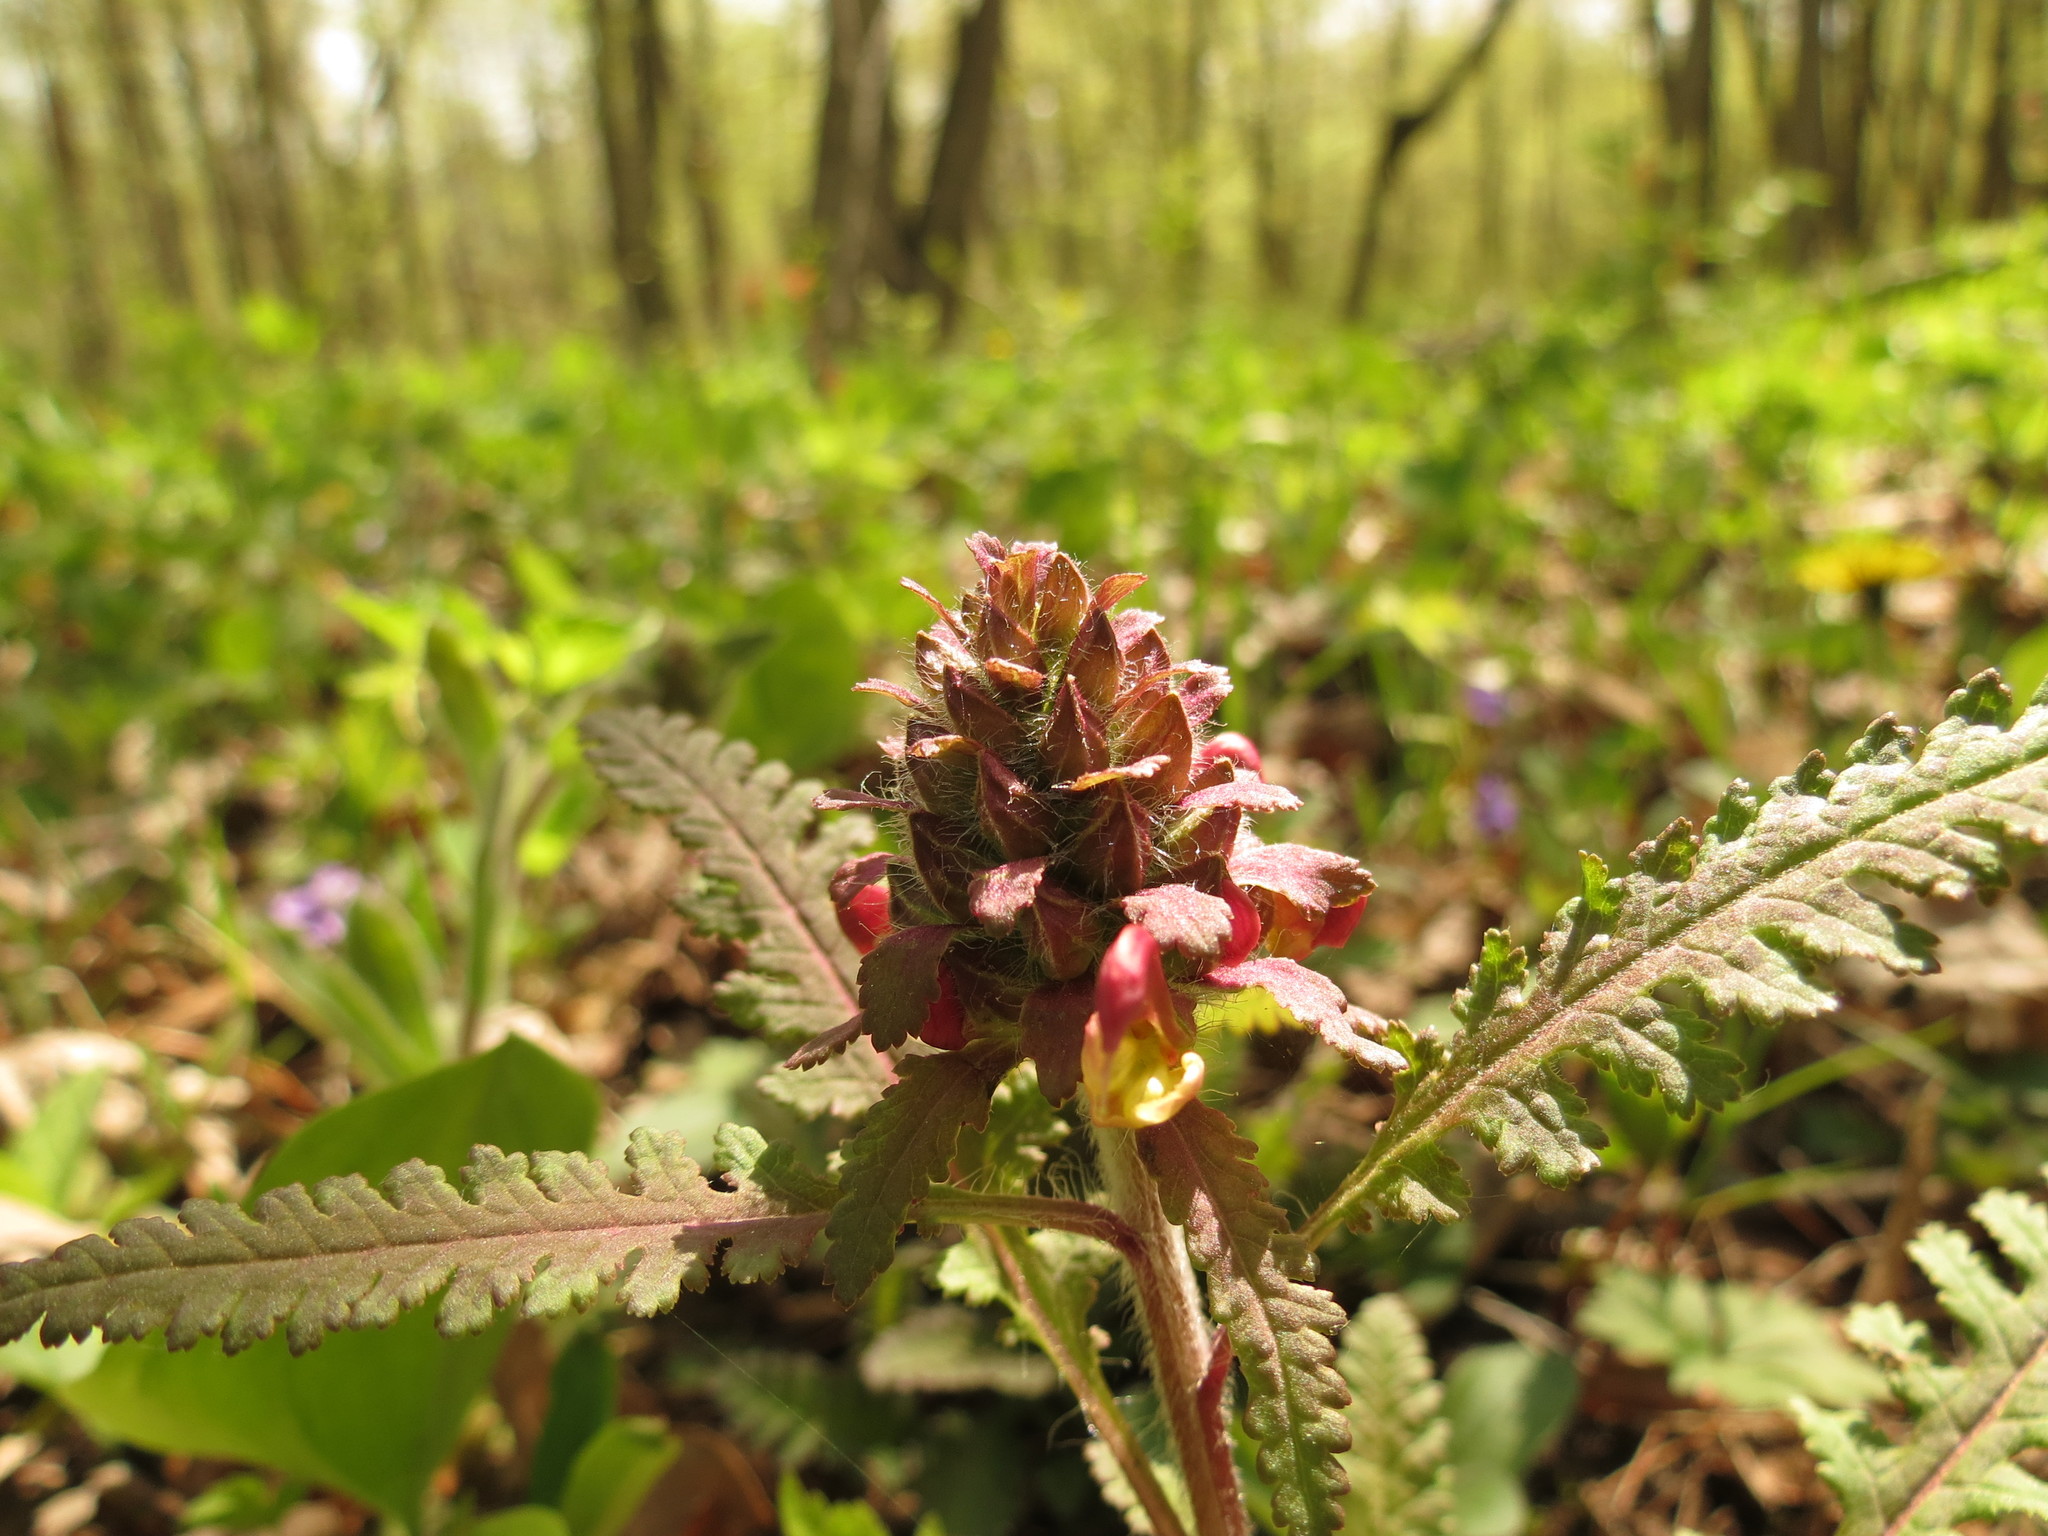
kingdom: Plantae
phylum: Tracheophyta
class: Magnoliopsida
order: Lamiales
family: Orobanchaceae
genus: Pedicularis
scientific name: Pedicularis canadensis
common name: Early lousewort
